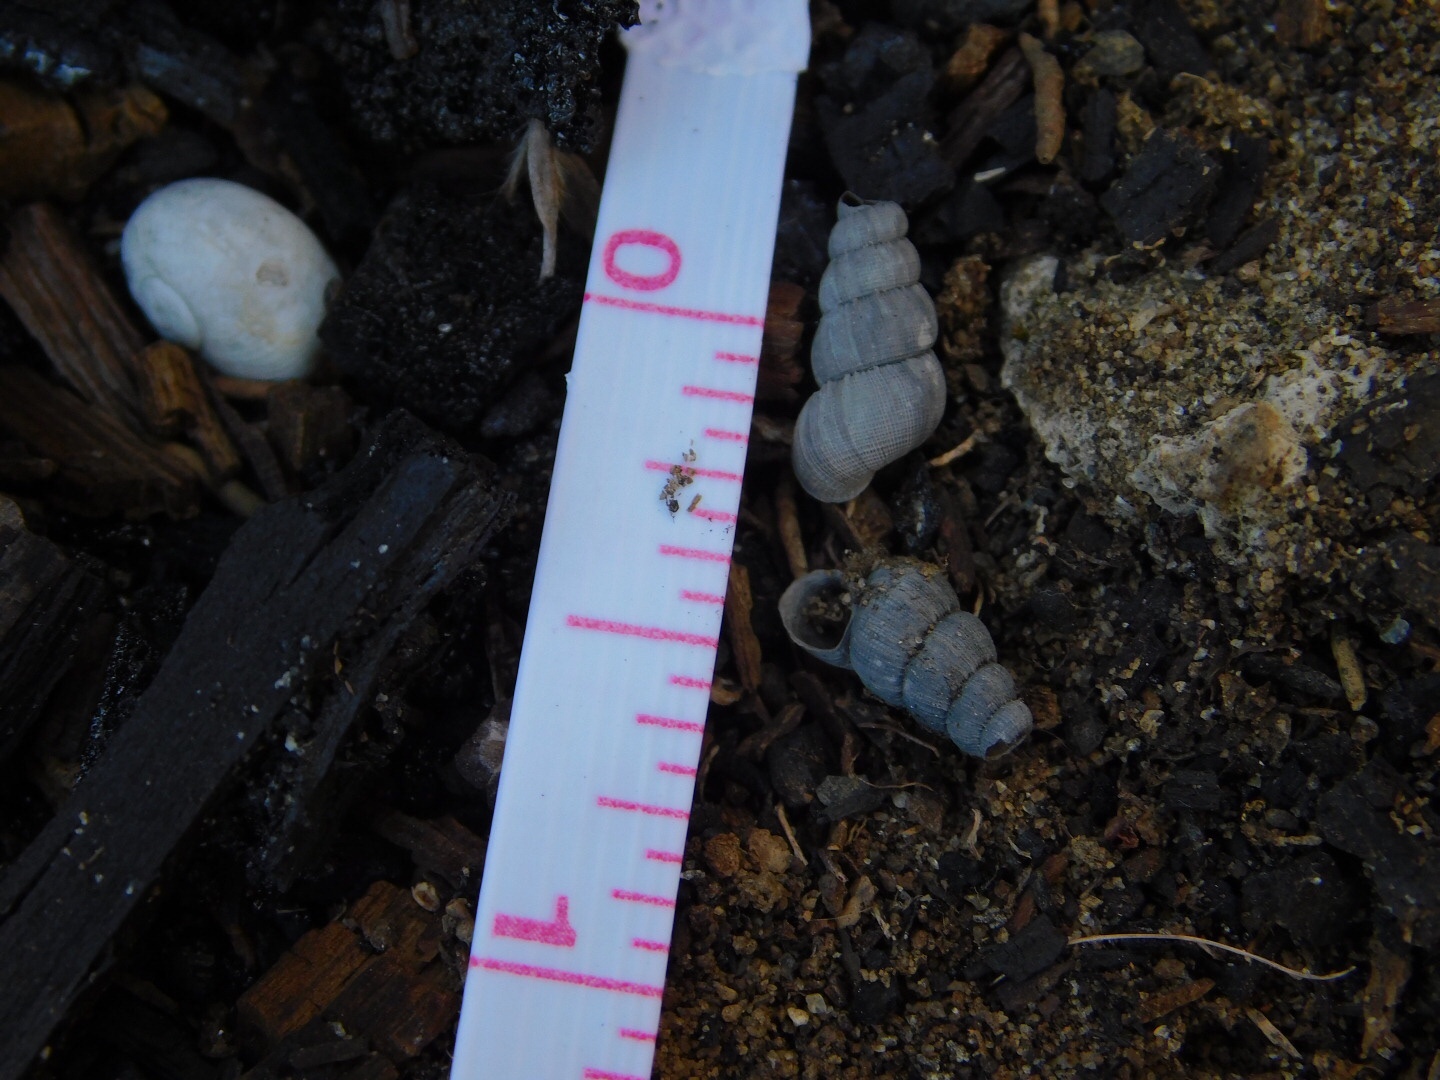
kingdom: Animalia
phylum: Mollusca
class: Gastropoda
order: Littorinimorpha
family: Annulariidae
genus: Parachondria
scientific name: Parachondria dentata
